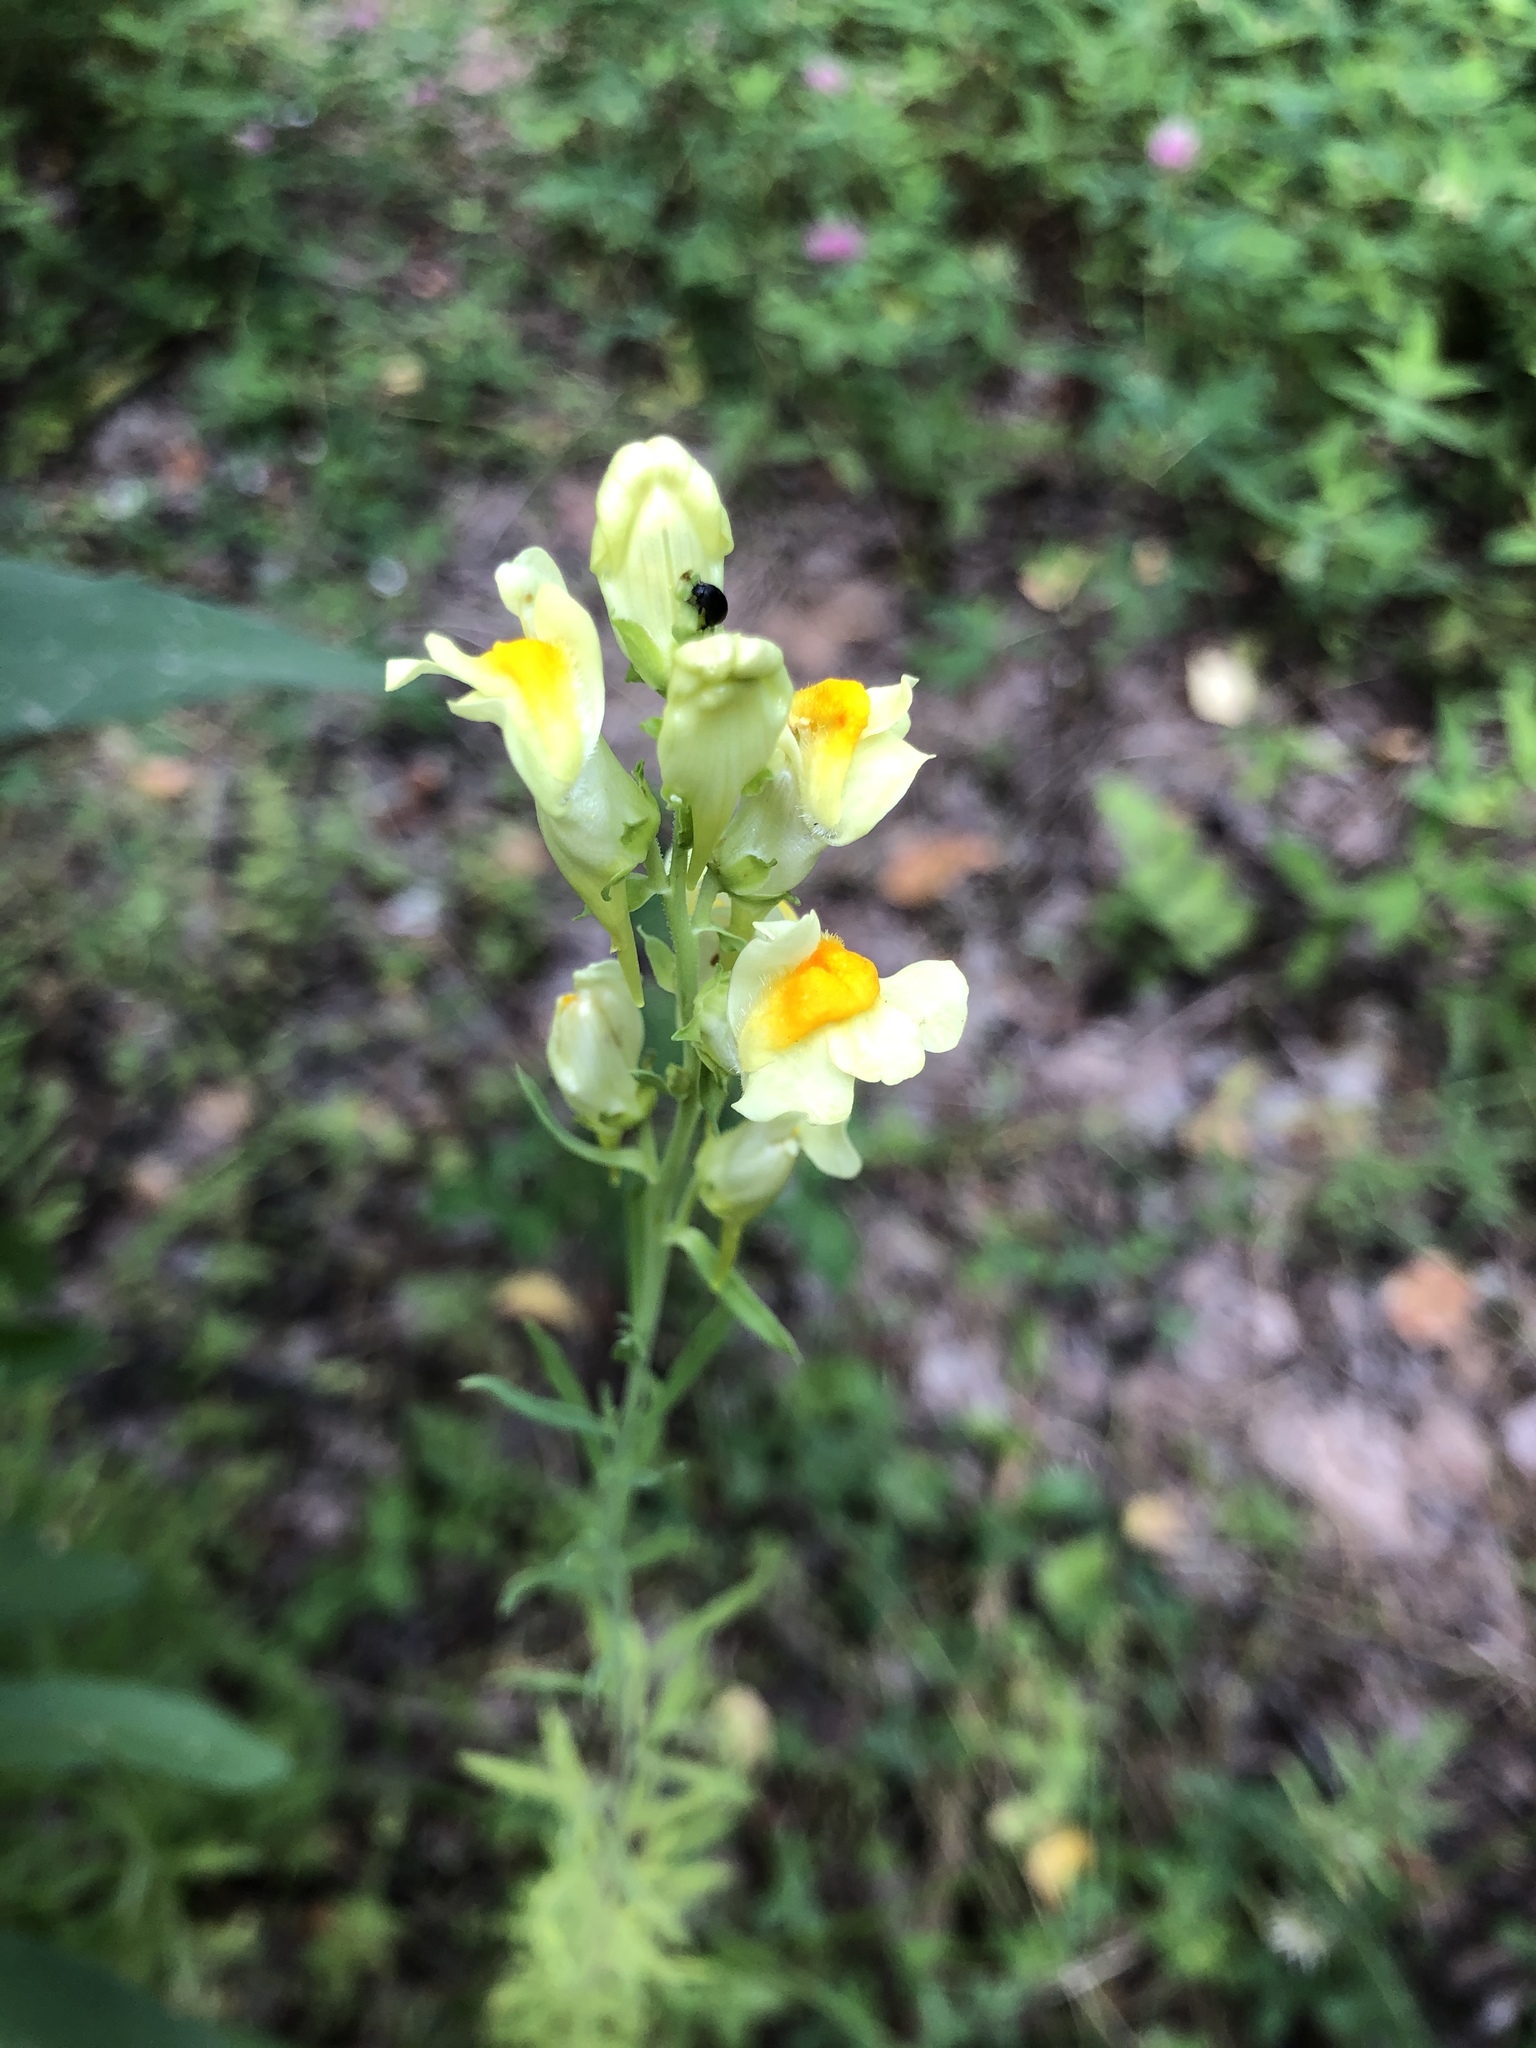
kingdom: Plantae
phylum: Tracheophyta
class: Magnoliopsida
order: Lamiales
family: Plantaginaceae
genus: Linaria
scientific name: Linaria vulgaris
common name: Butter and eggs
